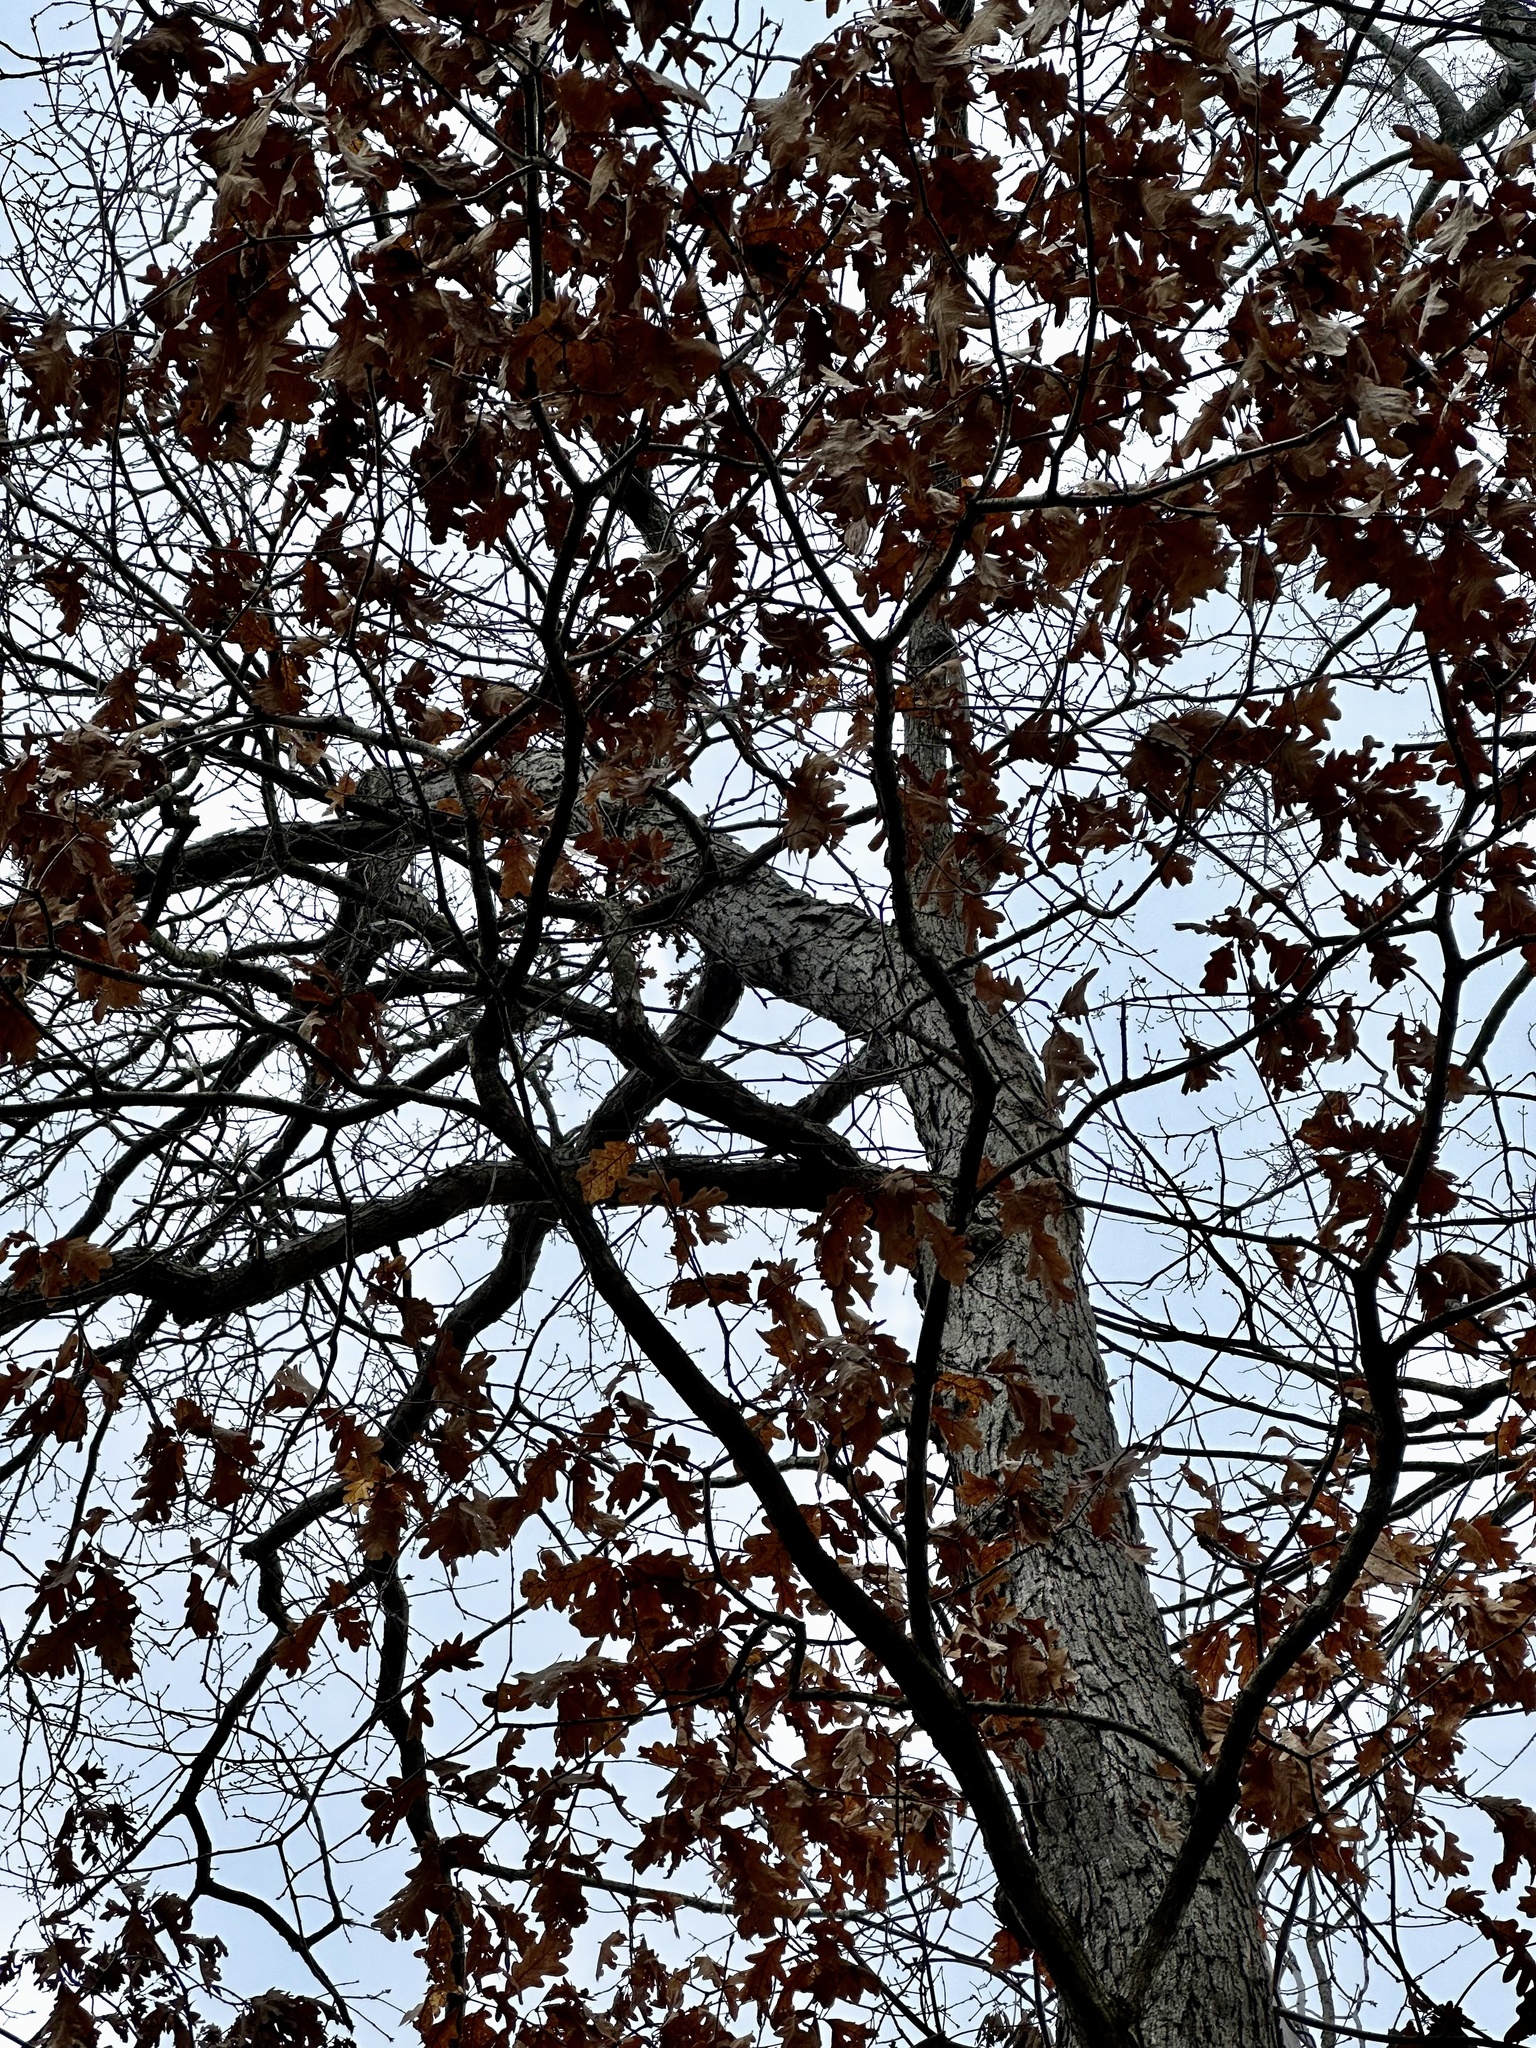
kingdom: Plantae
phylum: Tracheophyta
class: Magnoliopsida
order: Fagales
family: Fagaceae
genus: Quercus
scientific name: Quercus alba
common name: White oak
